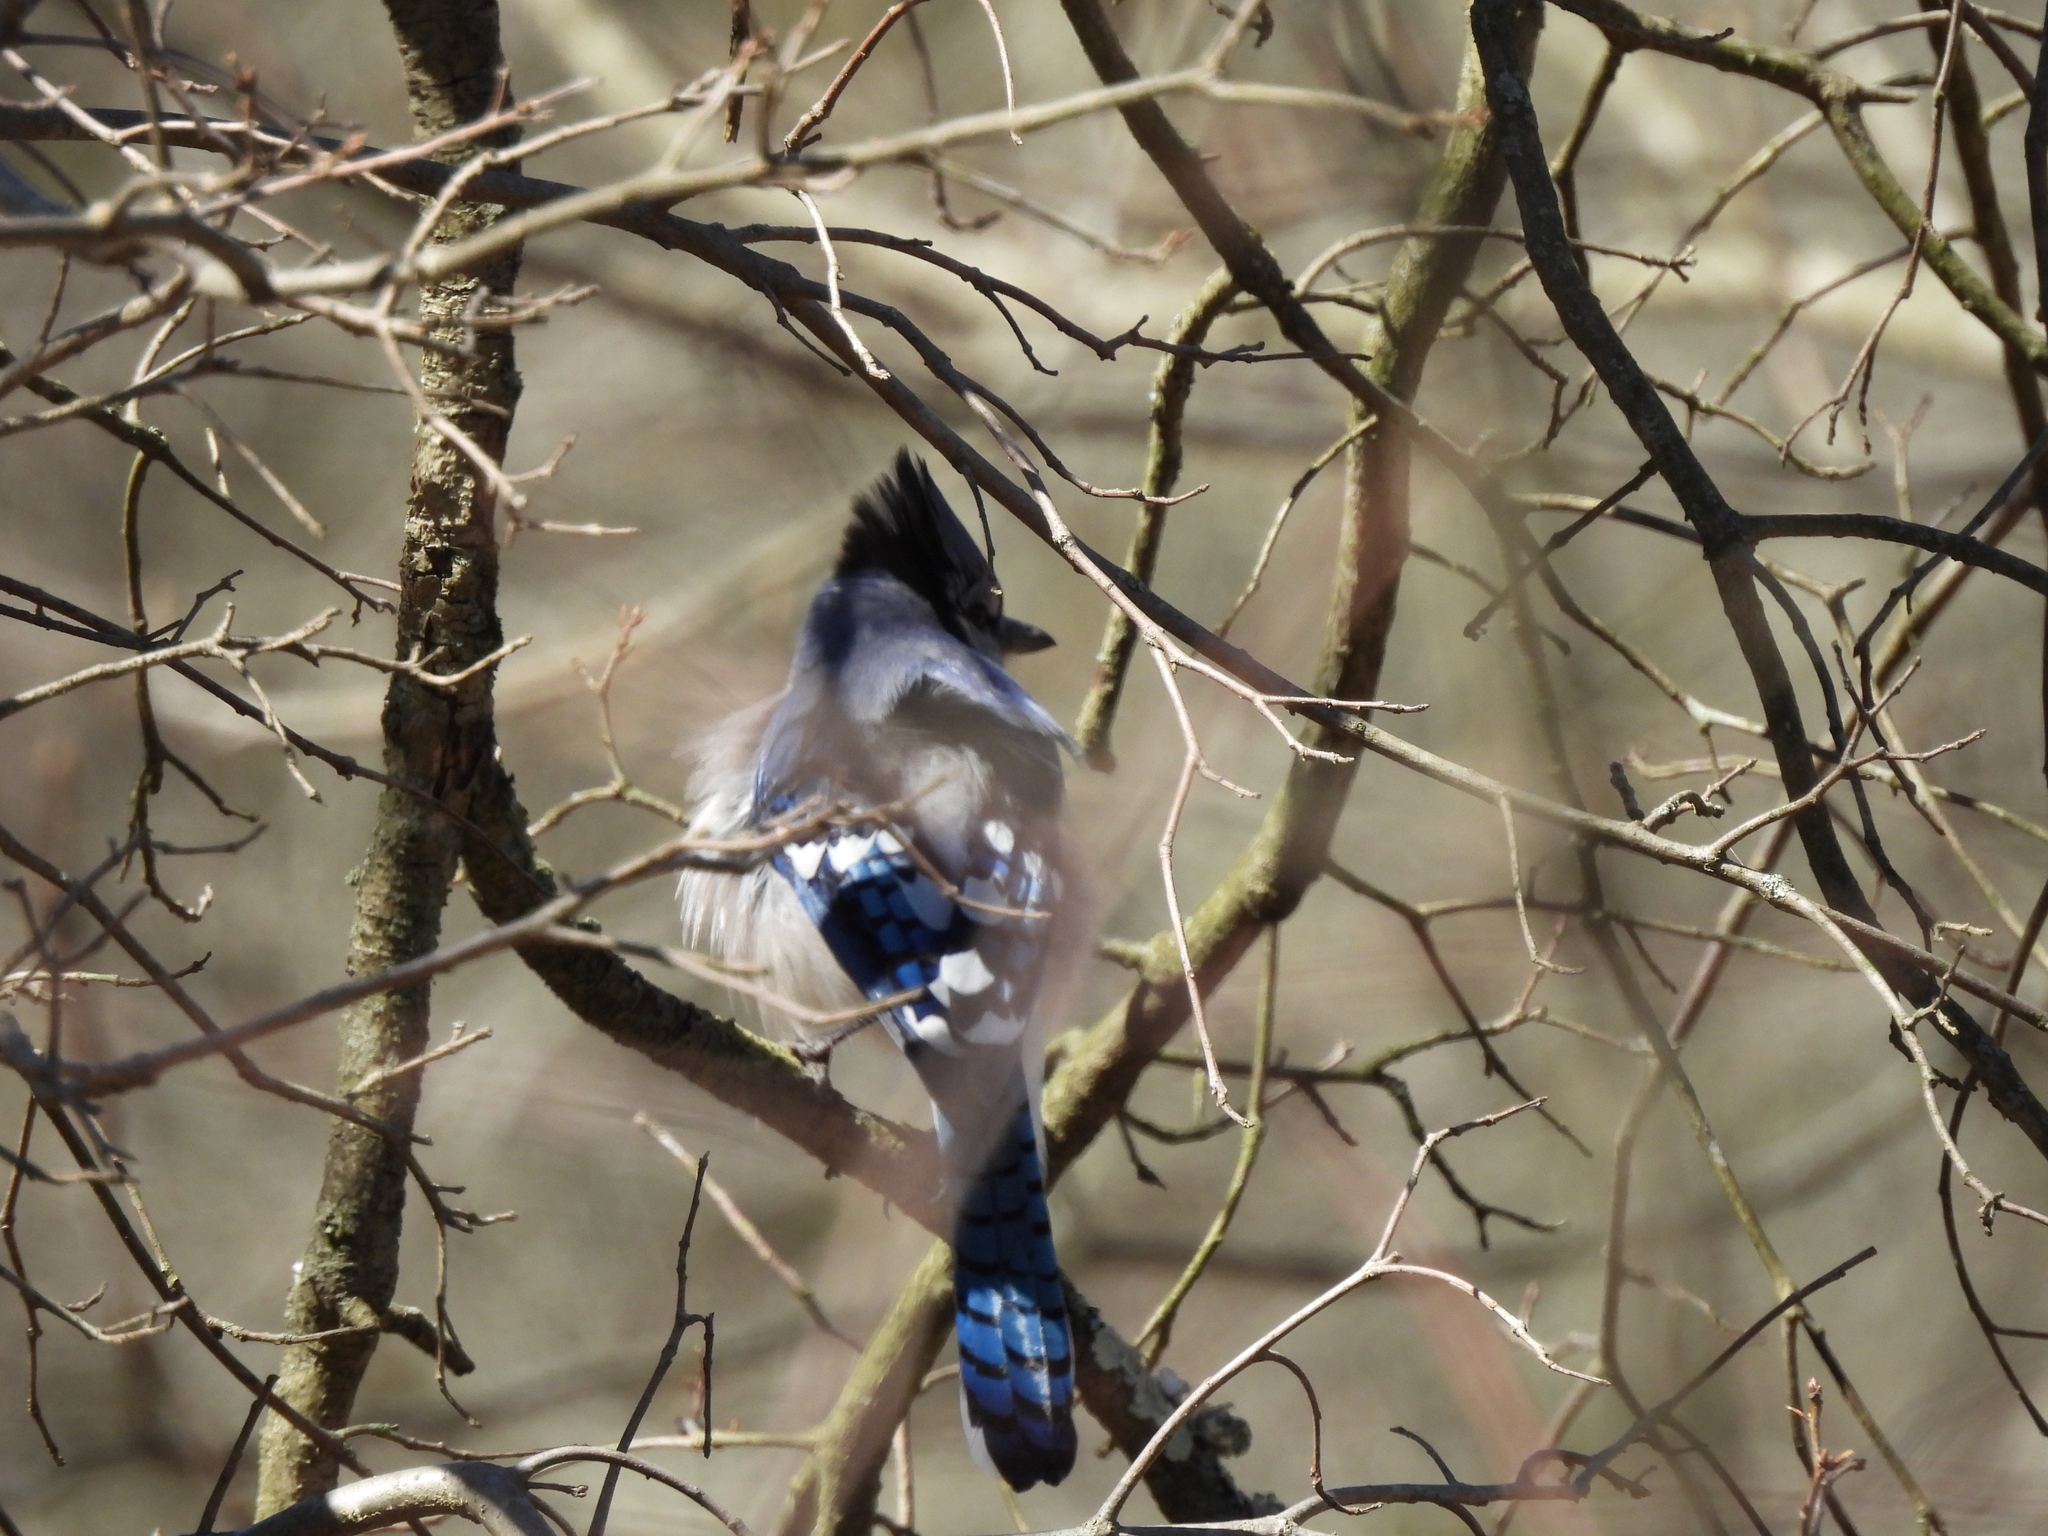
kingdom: Animalia
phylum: Chordata
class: Aves
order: Passeriformes
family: Corvidae
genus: Cyanocitta
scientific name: Cyanocitta cristata
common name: Blue jay
